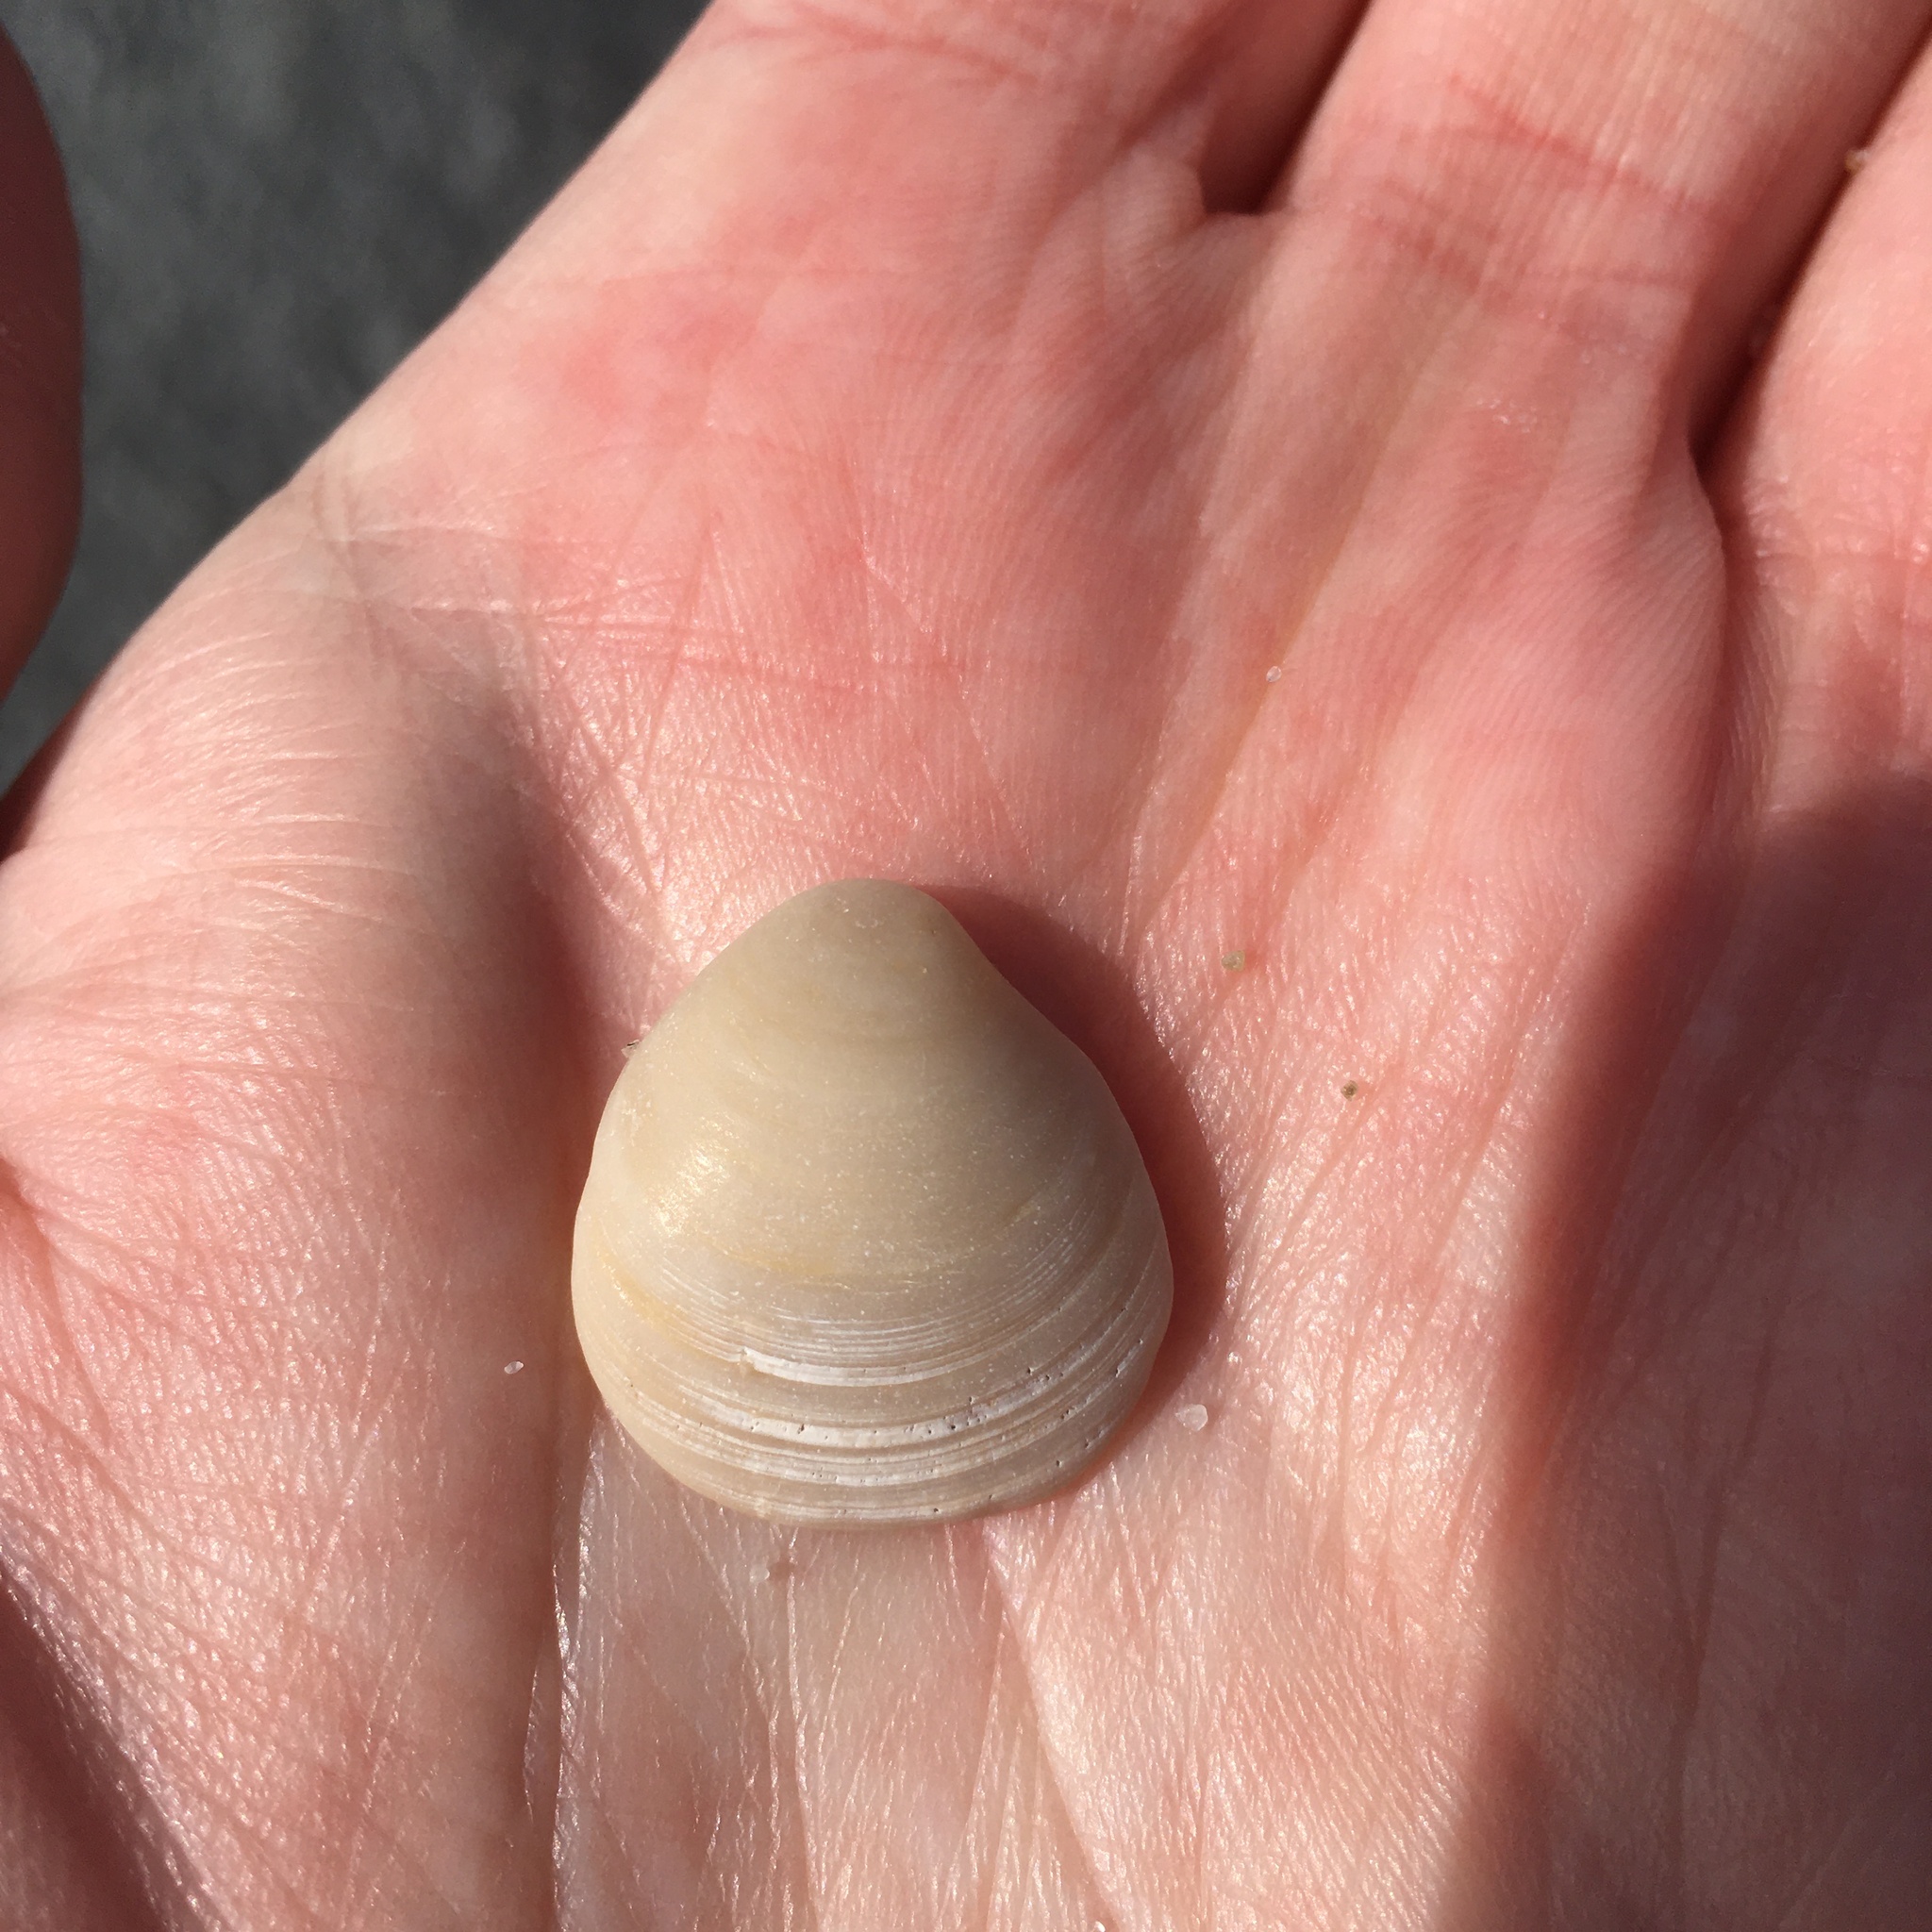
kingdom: Animalia
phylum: Mollusca
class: Bivalvia
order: Cardiida
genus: Isocrassina
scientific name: Isocrassina
